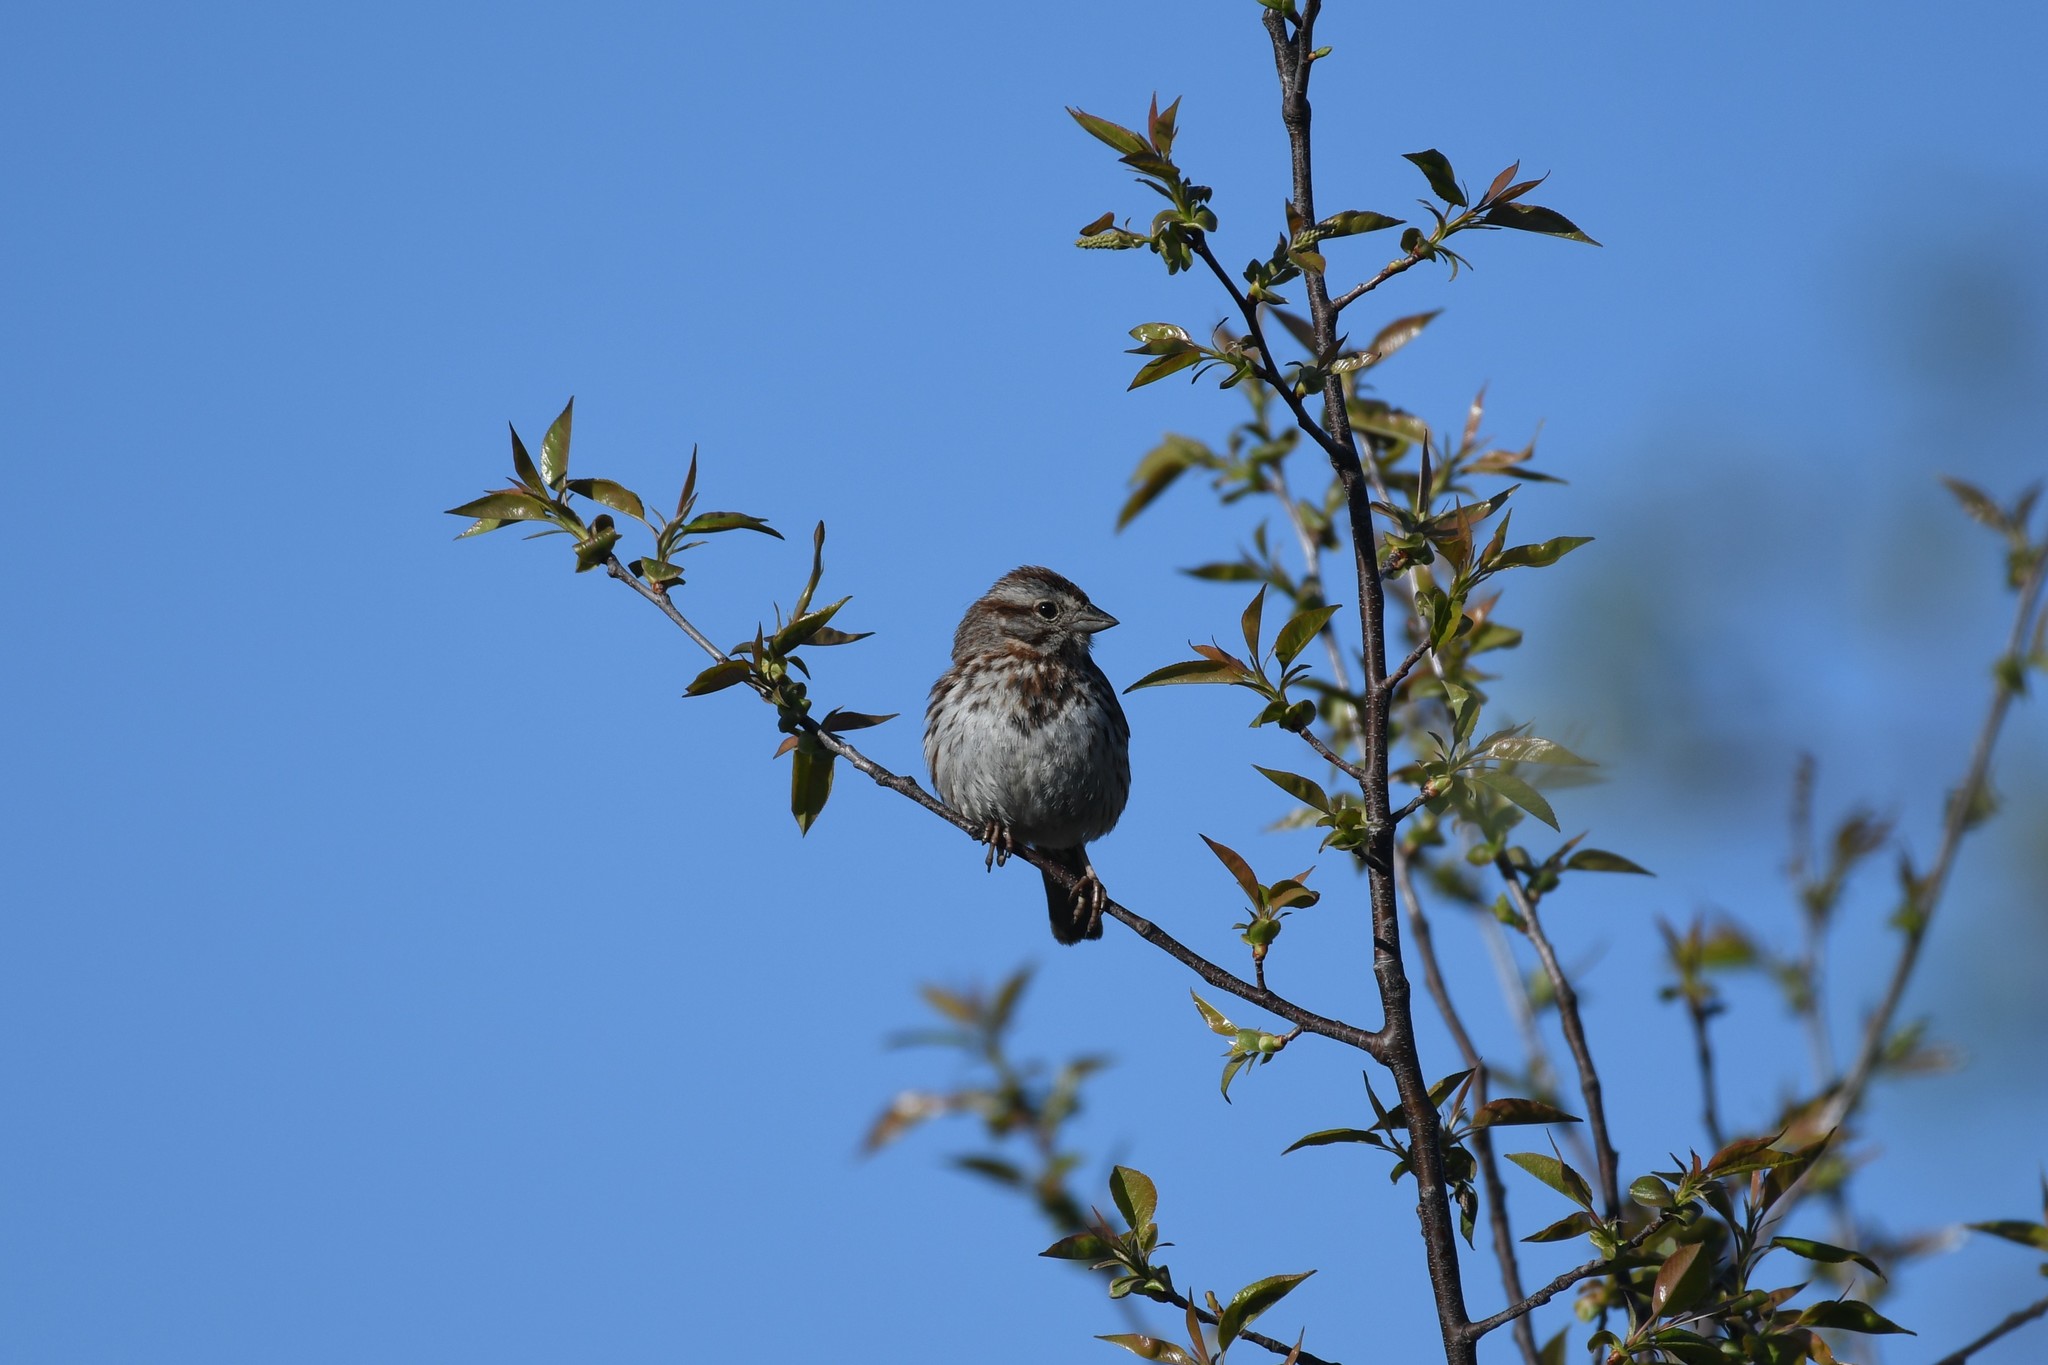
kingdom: Animalia
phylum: Chordata
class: Aves
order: Passeriformes
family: Passerellidae
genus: Melospiza
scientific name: Melospiza melodia
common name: Song sparrow
